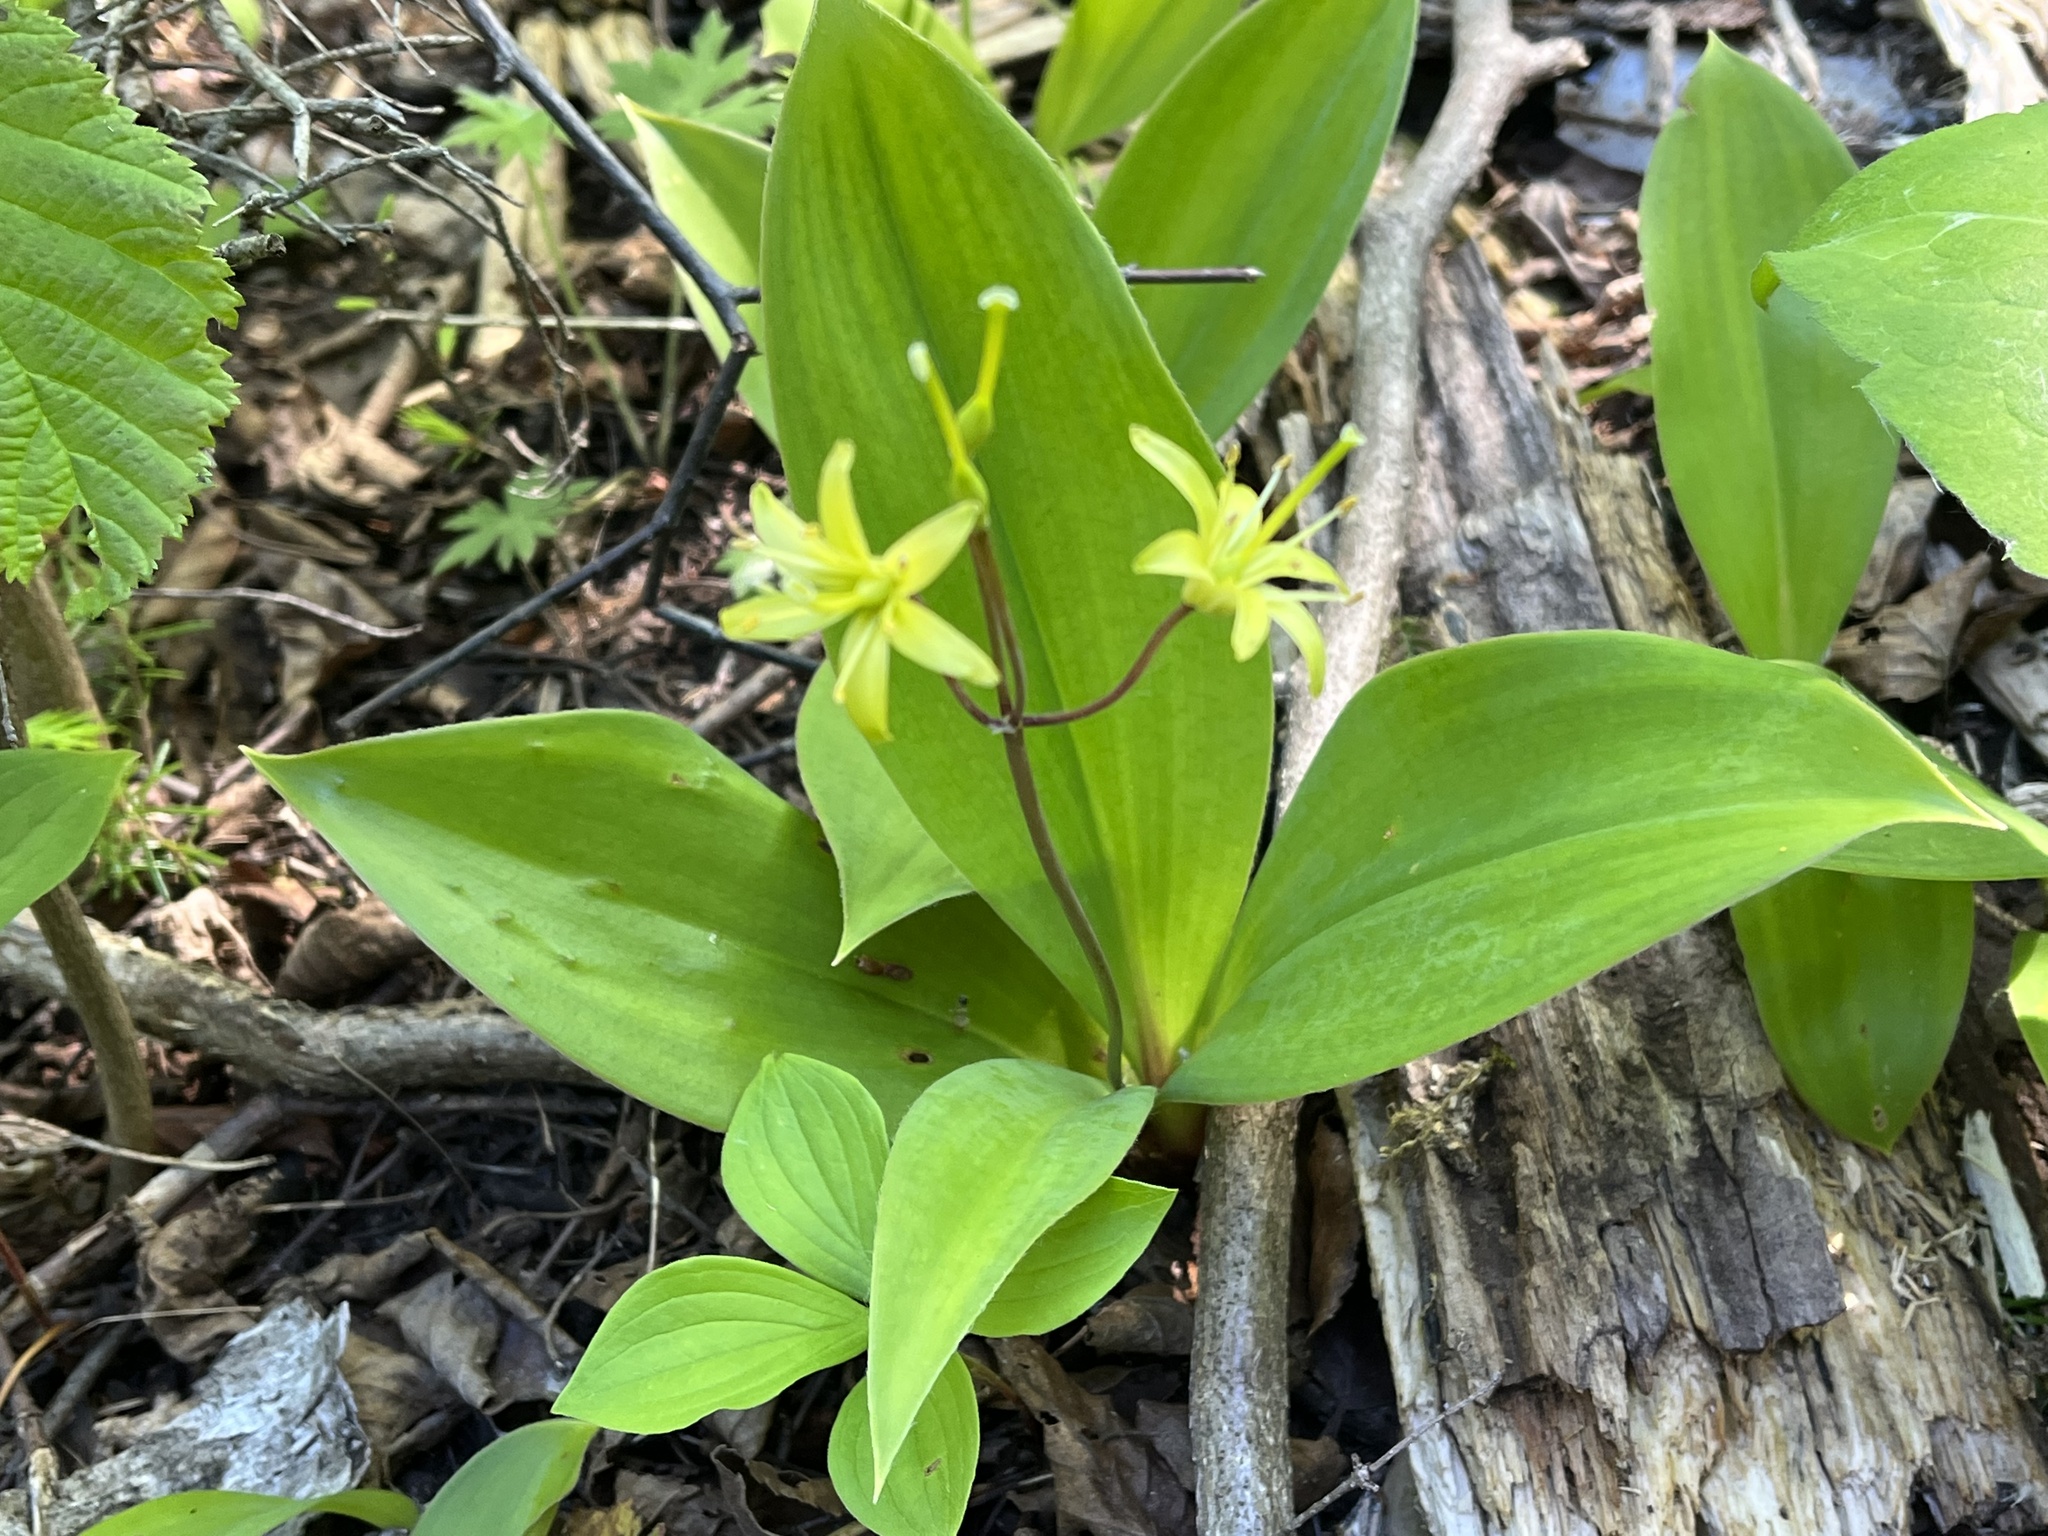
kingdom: Plantae
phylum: Tracheophyta
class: Liliopsida
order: Liliales
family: Liliaceae
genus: Clintonia
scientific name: Clintonia borealis
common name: Yellow clintonia
